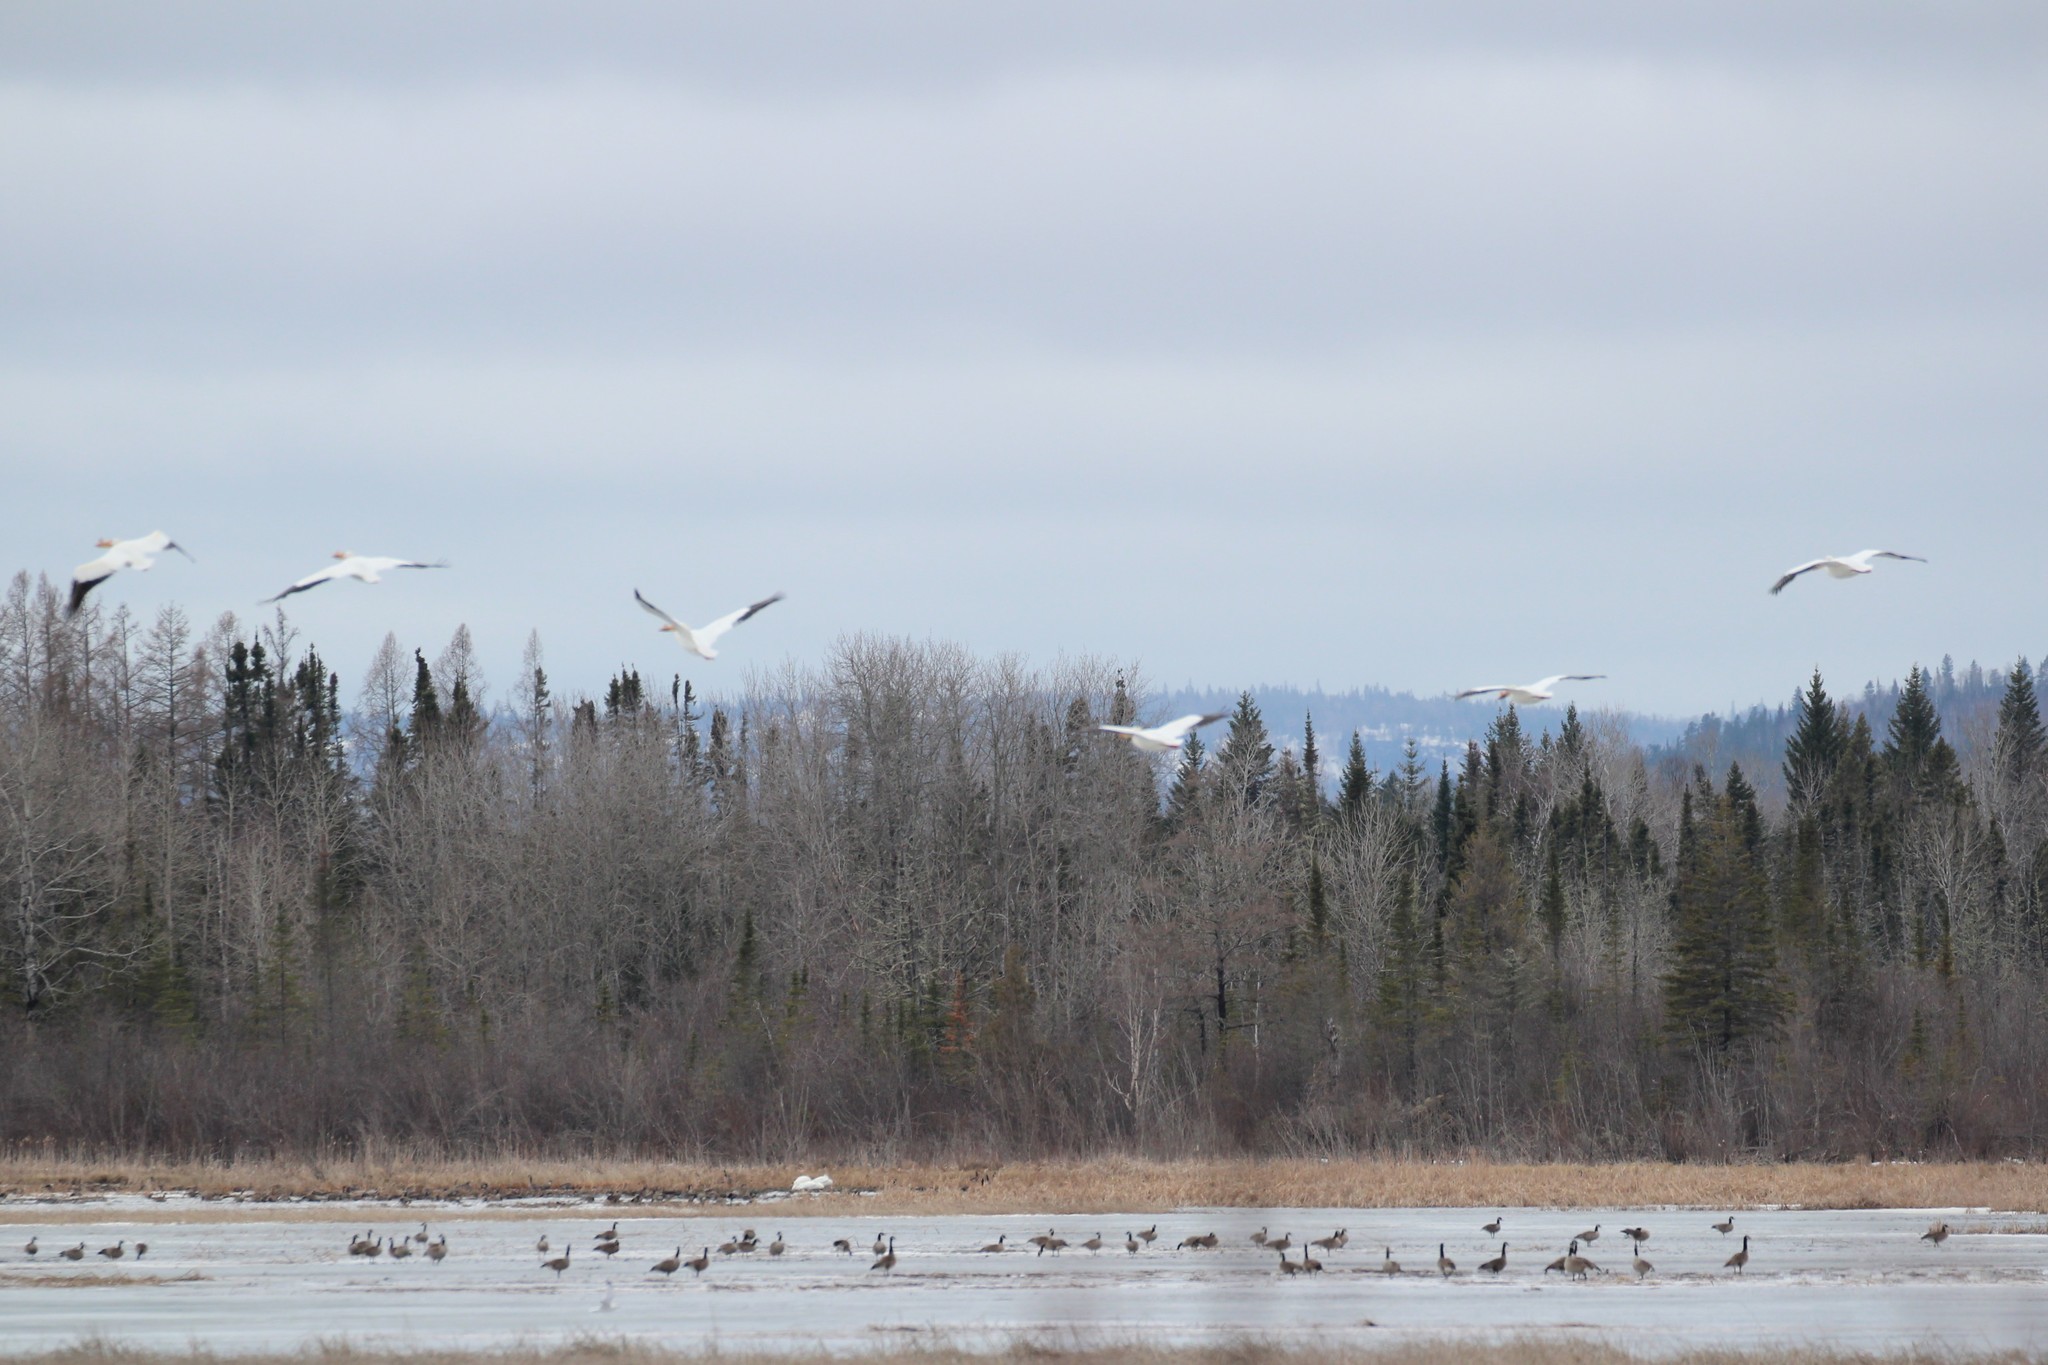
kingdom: Animalia
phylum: Chordata
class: Aves
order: Pelecaniformes
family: Pelecanidae
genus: Pelecanus
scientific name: Pelecanus erythrorhynchos
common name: American white pelican
